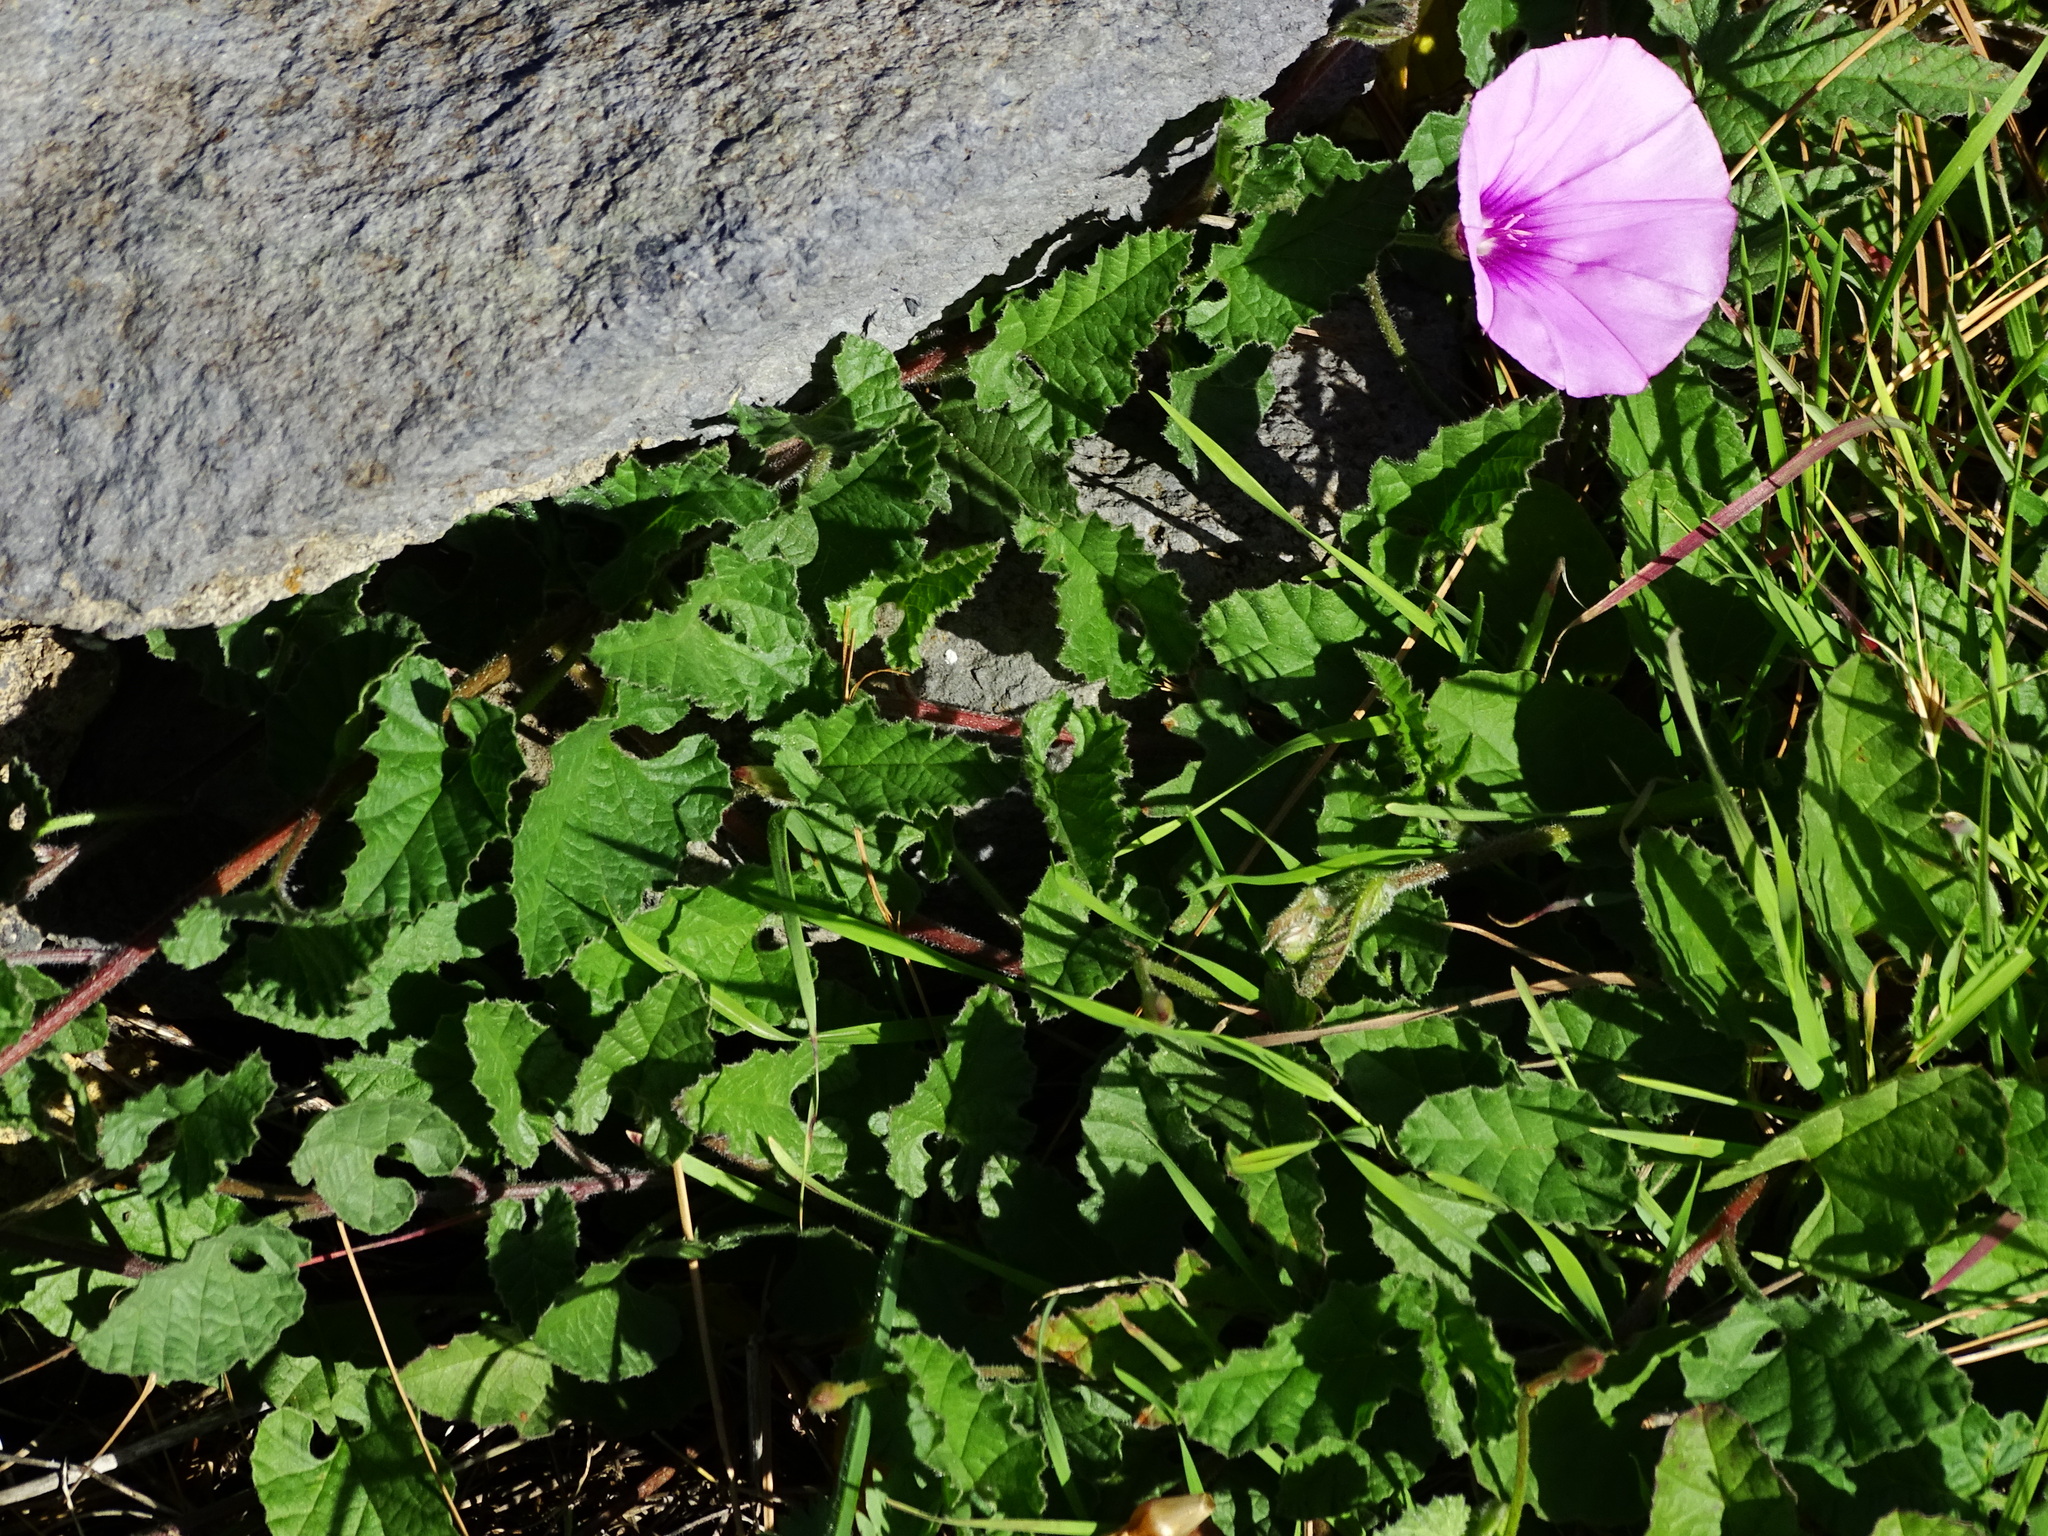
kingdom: Plantae
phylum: Tracheophyta
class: Magnoliopsida
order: Solanales
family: Convolvulaceae
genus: Convolvulus
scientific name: Convolvulus althaeoides
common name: Mallow bindweed
